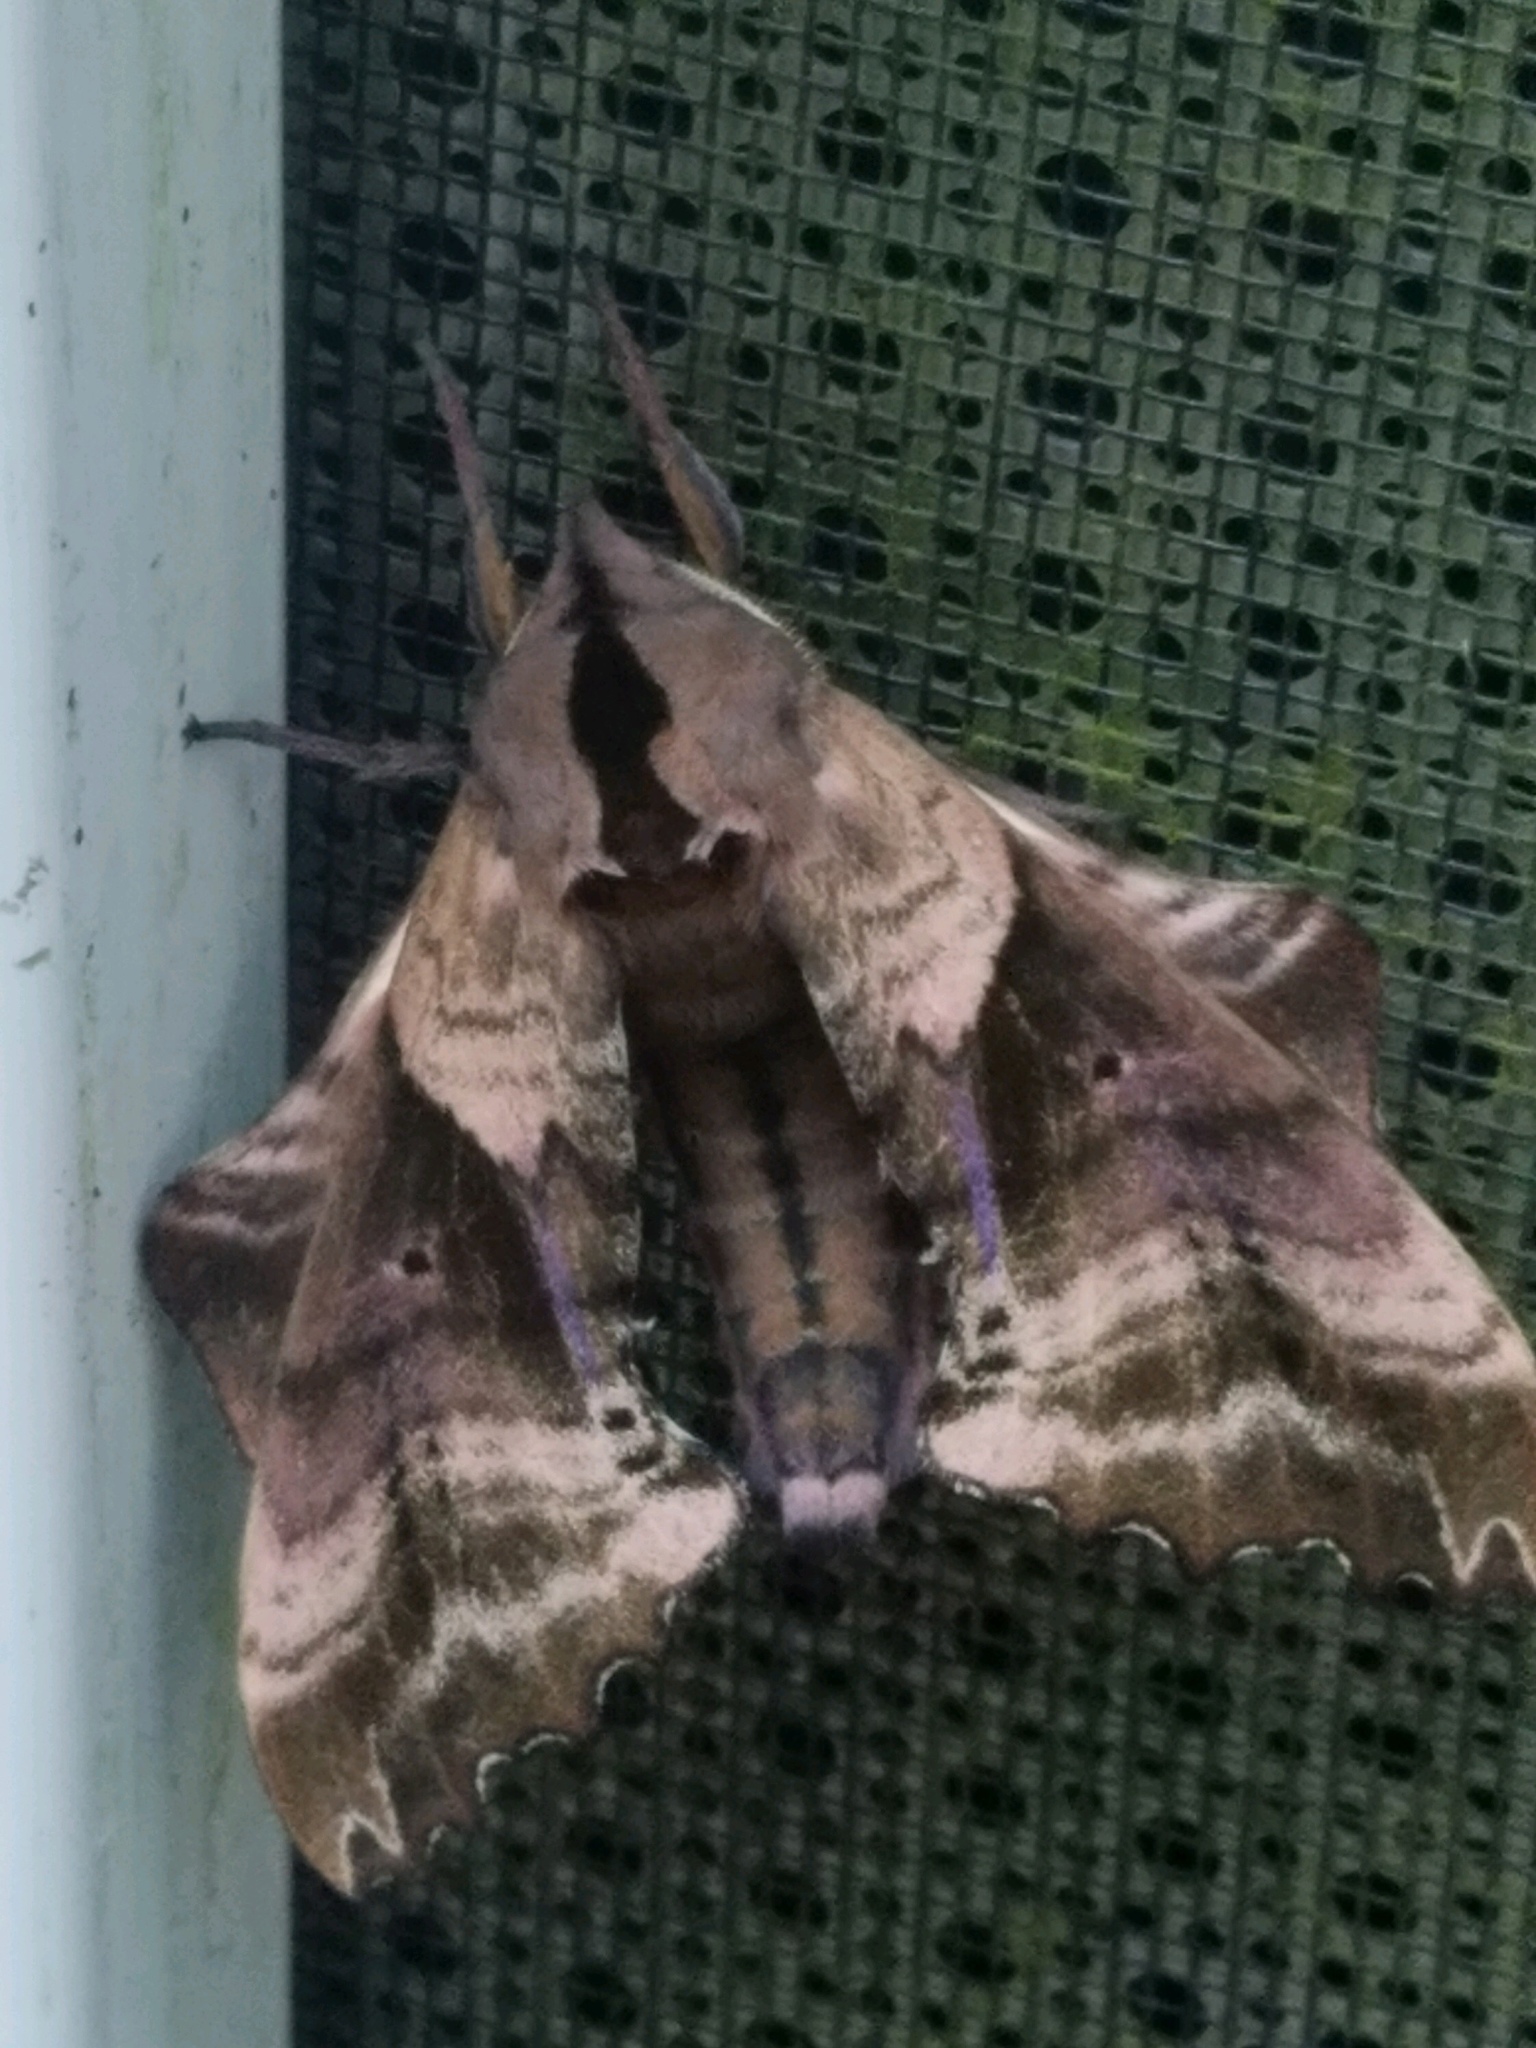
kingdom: Animalia
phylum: Arthropoda
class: Insecta
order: Lepidoptera
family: Sphingidae
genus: Paonias
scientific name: Paonias excaecata
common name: Blind-eyed sphinx
